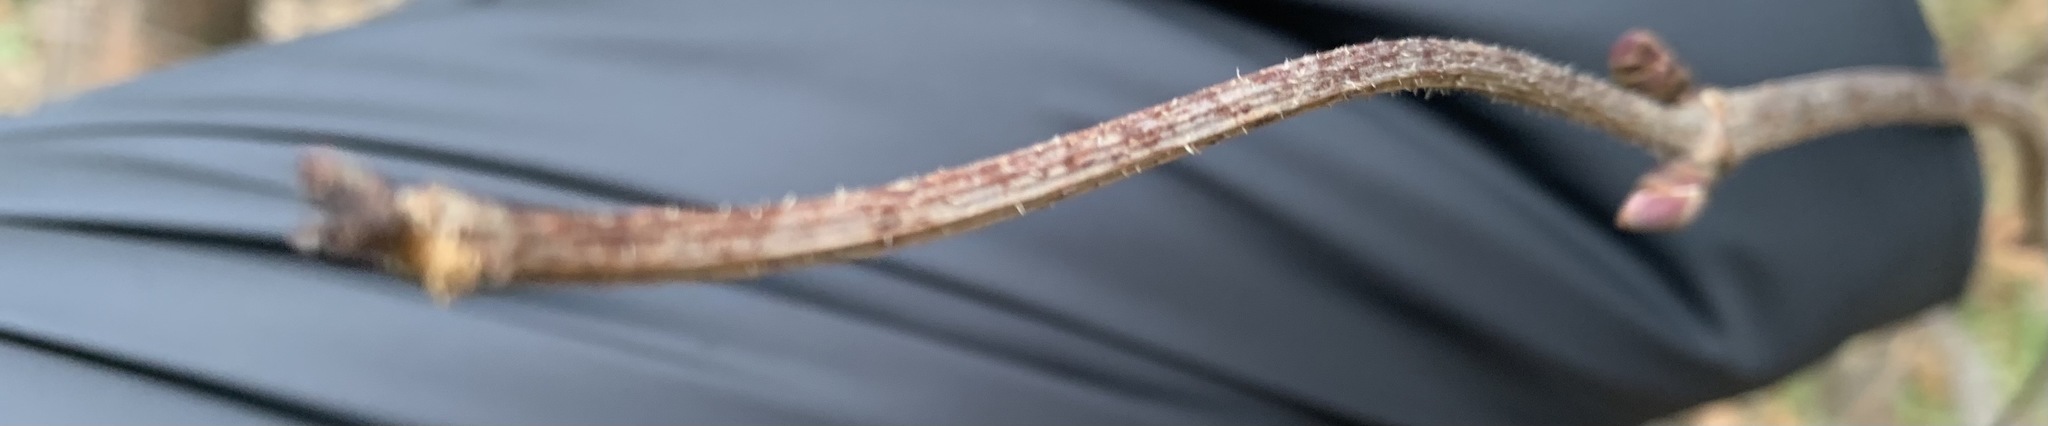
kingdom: Plantae
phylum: Tracheophyta
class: Magnoliopsida
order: Dipsacales
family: Viburnaceae
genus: Sambucus
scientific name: Sambucus racemosa
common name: Red-berried elder
